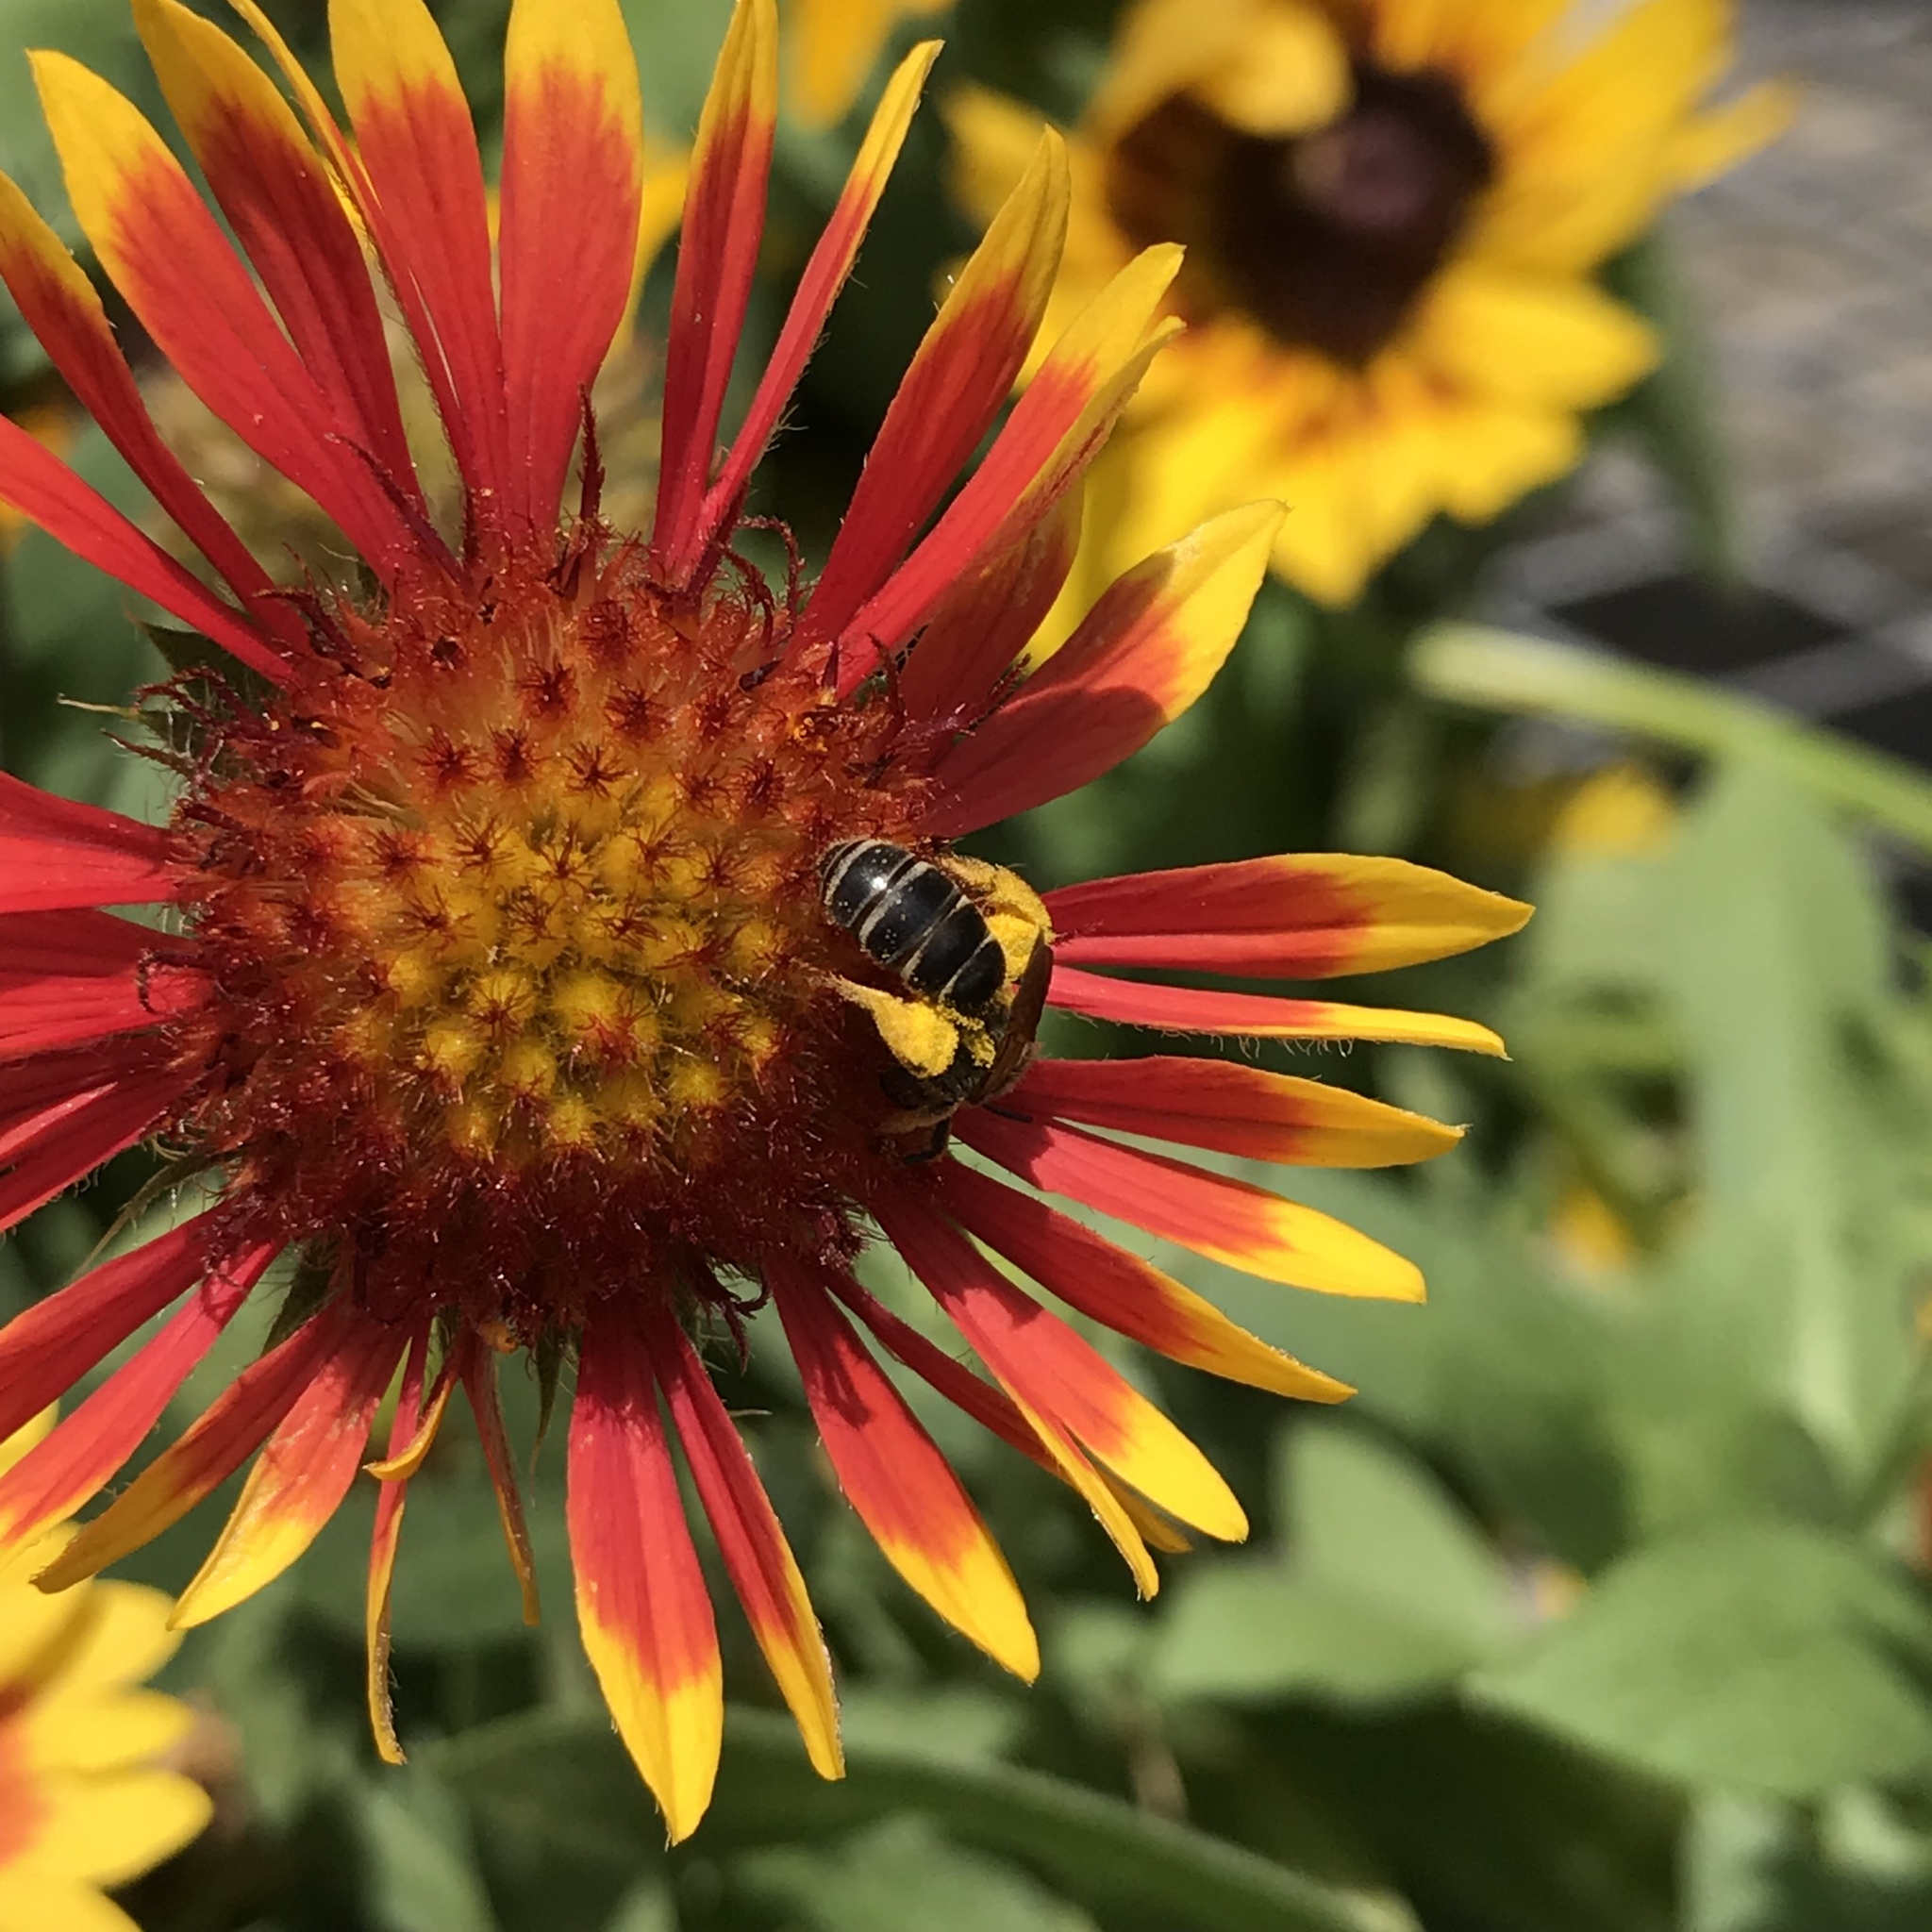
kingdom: Animalia
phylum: Arthropoda
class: Insecta
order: Hymenoptera
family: Halictidae
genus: Halictus
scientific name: Halictus poeyi
